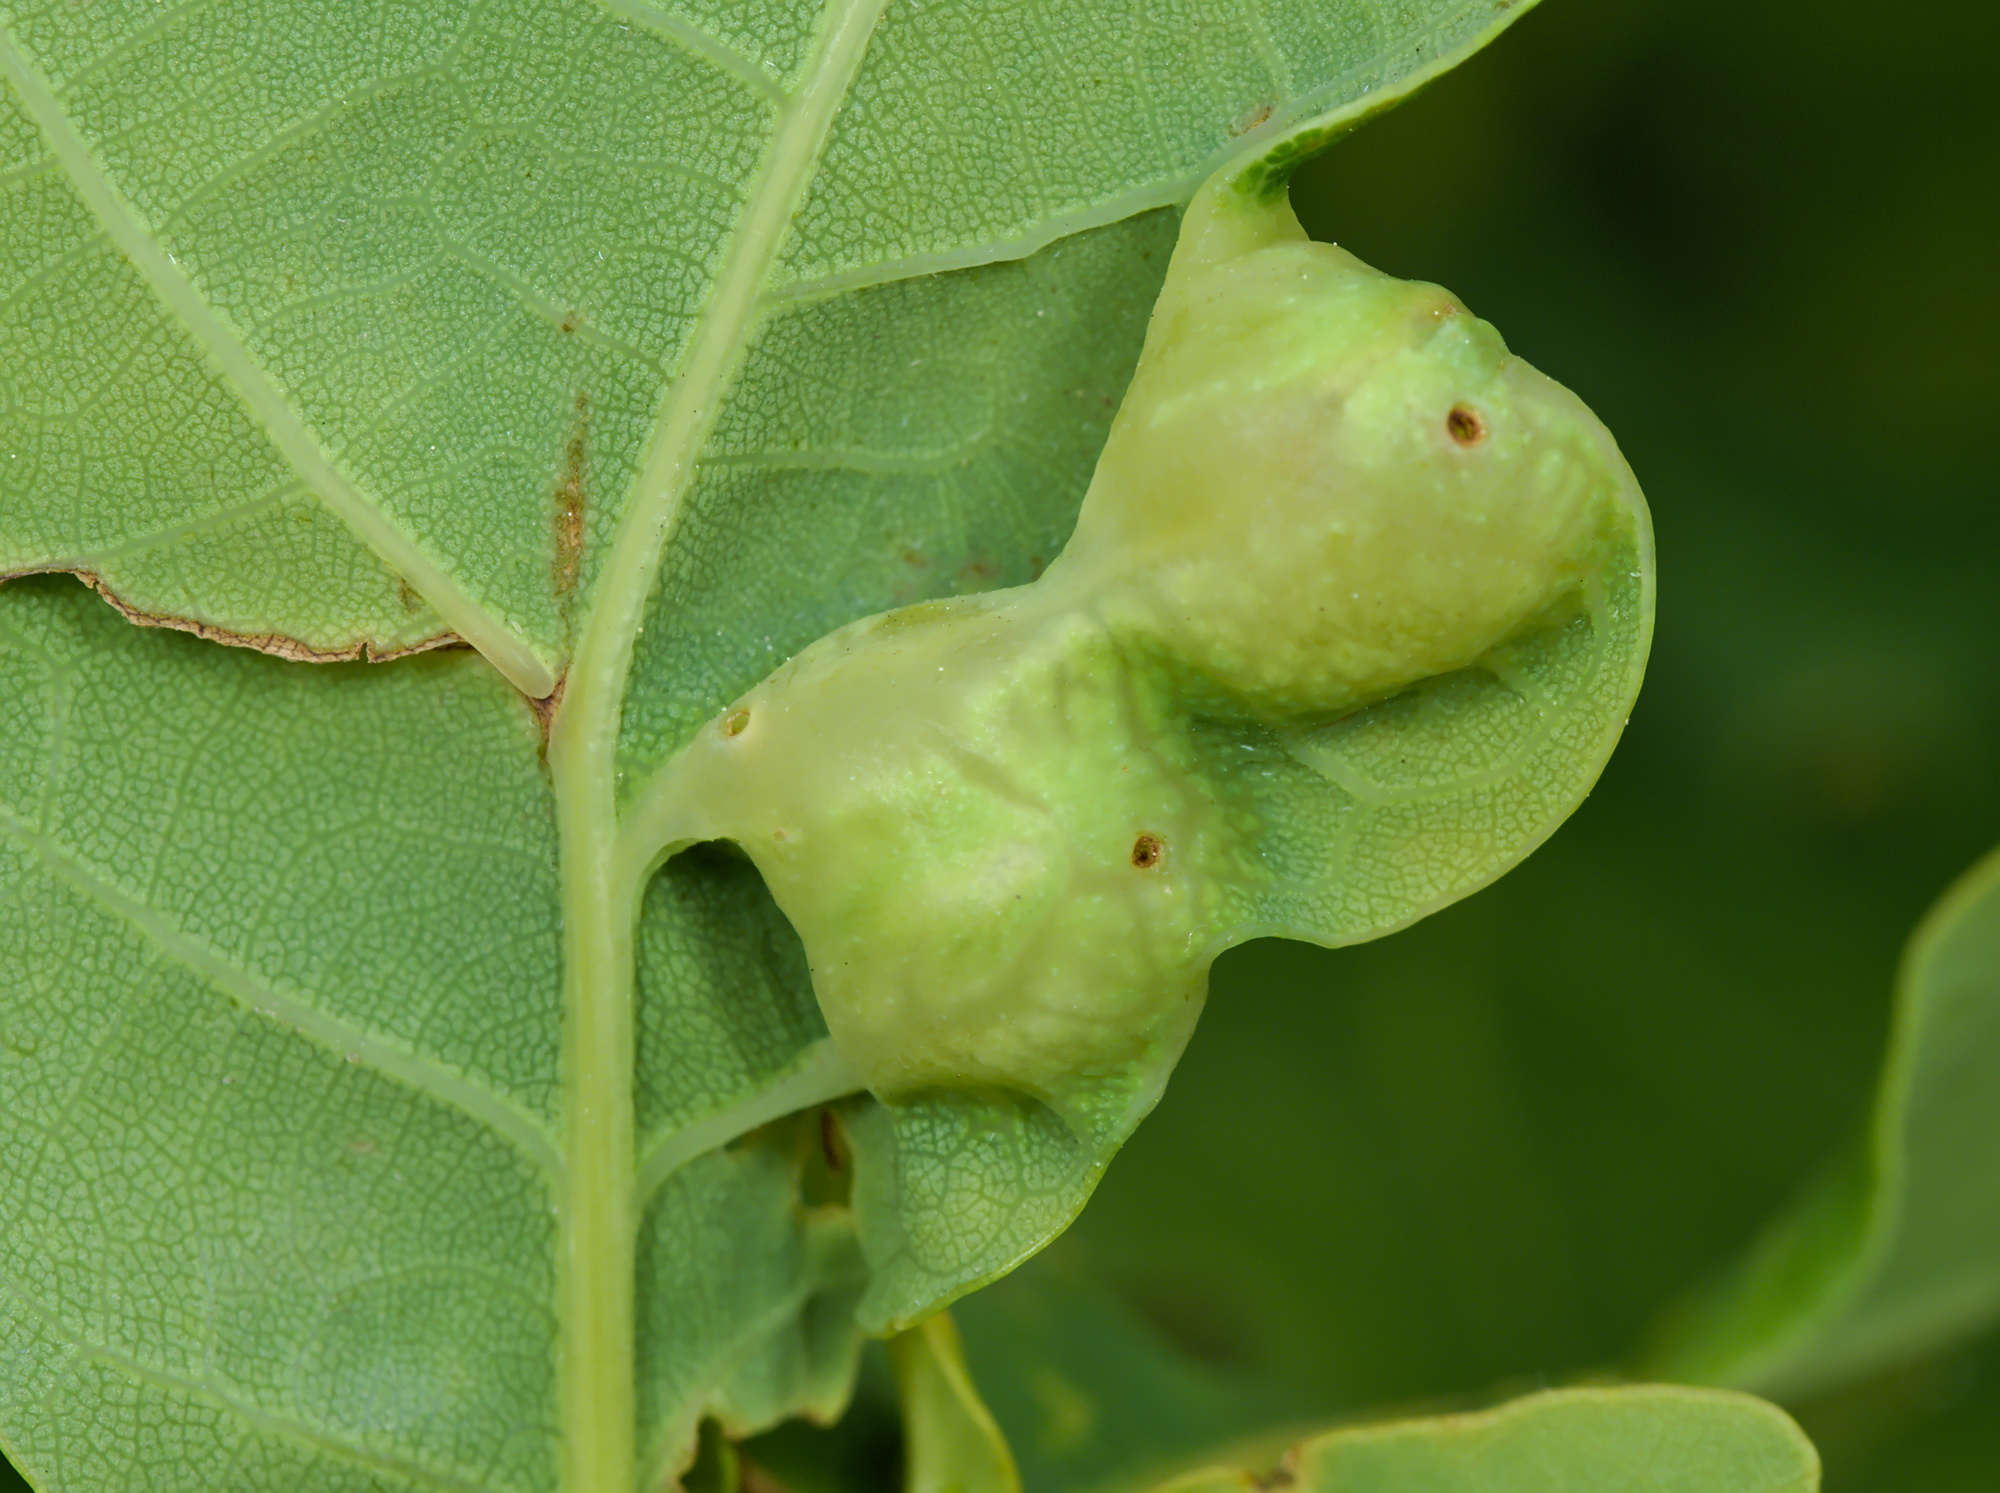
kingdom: Animalia
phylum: Arthropoda
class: Insecta
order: Hymenoptera
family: Cynipidae
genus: Andricus
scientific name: Andricus curvator
